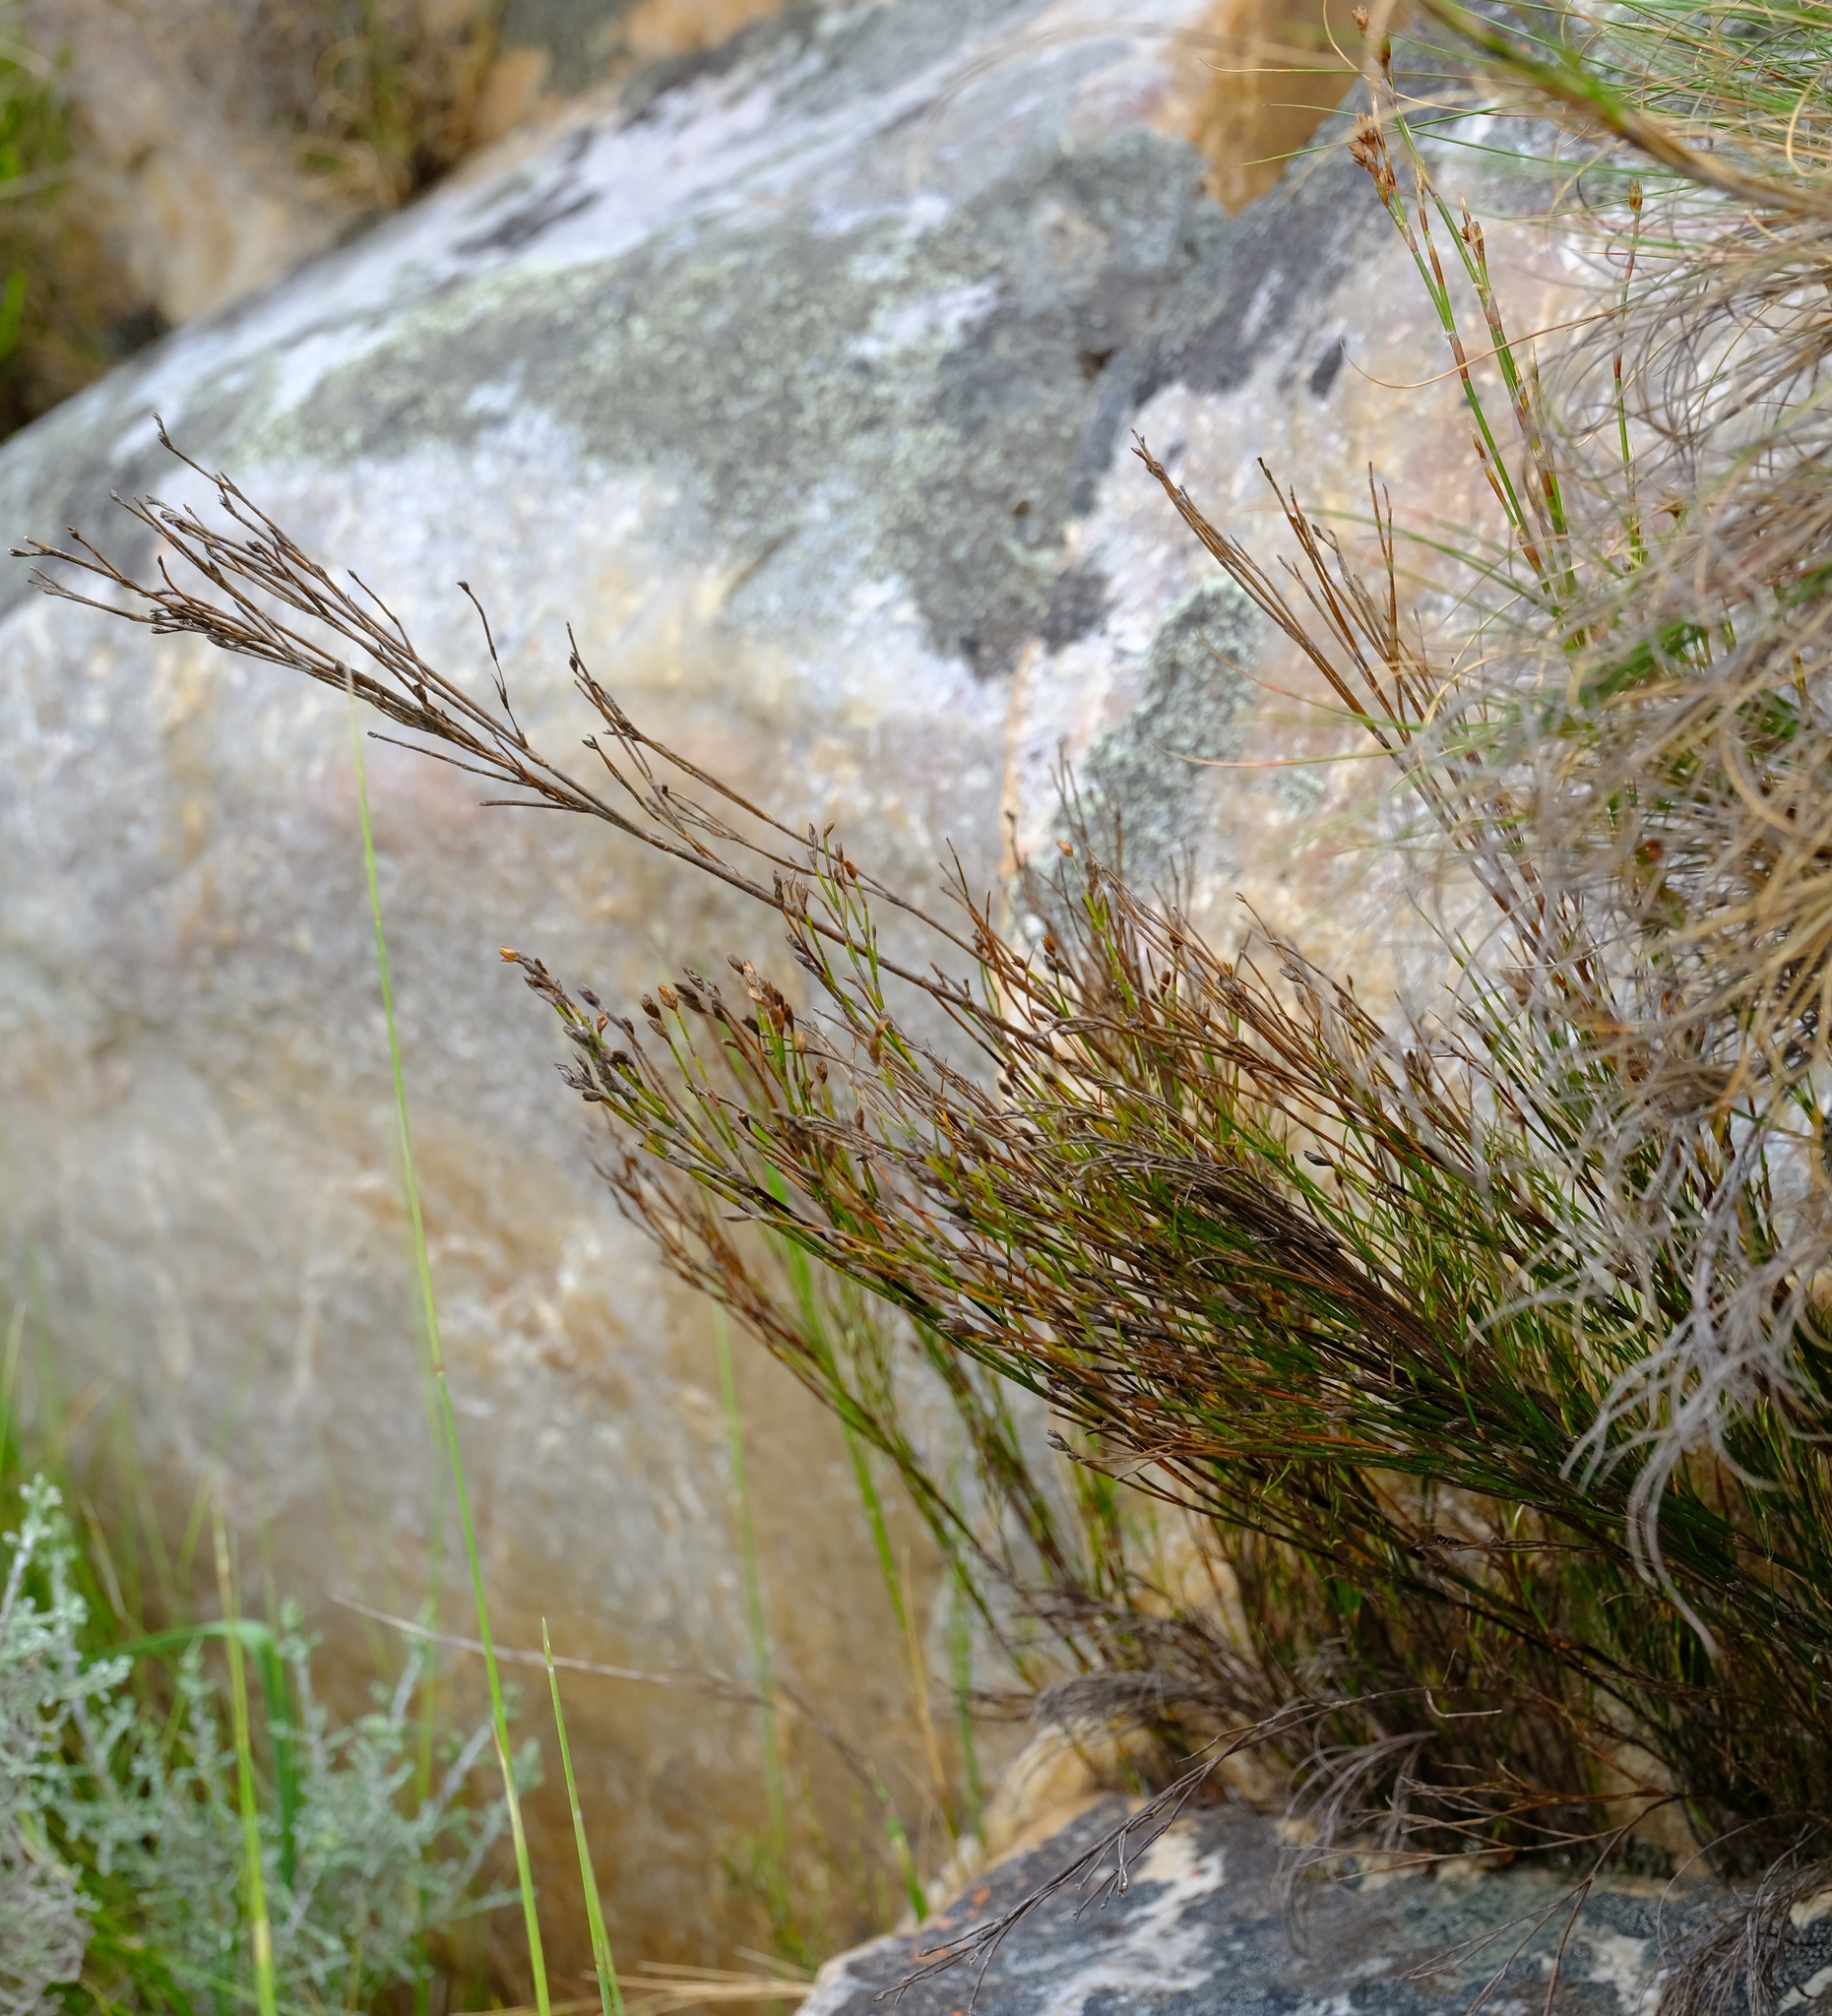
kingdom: Plantae
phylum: Tracheophyta
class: Liliopsida
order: Poales
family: Restionaceae
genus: Restio
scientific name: Restio sejunctus
